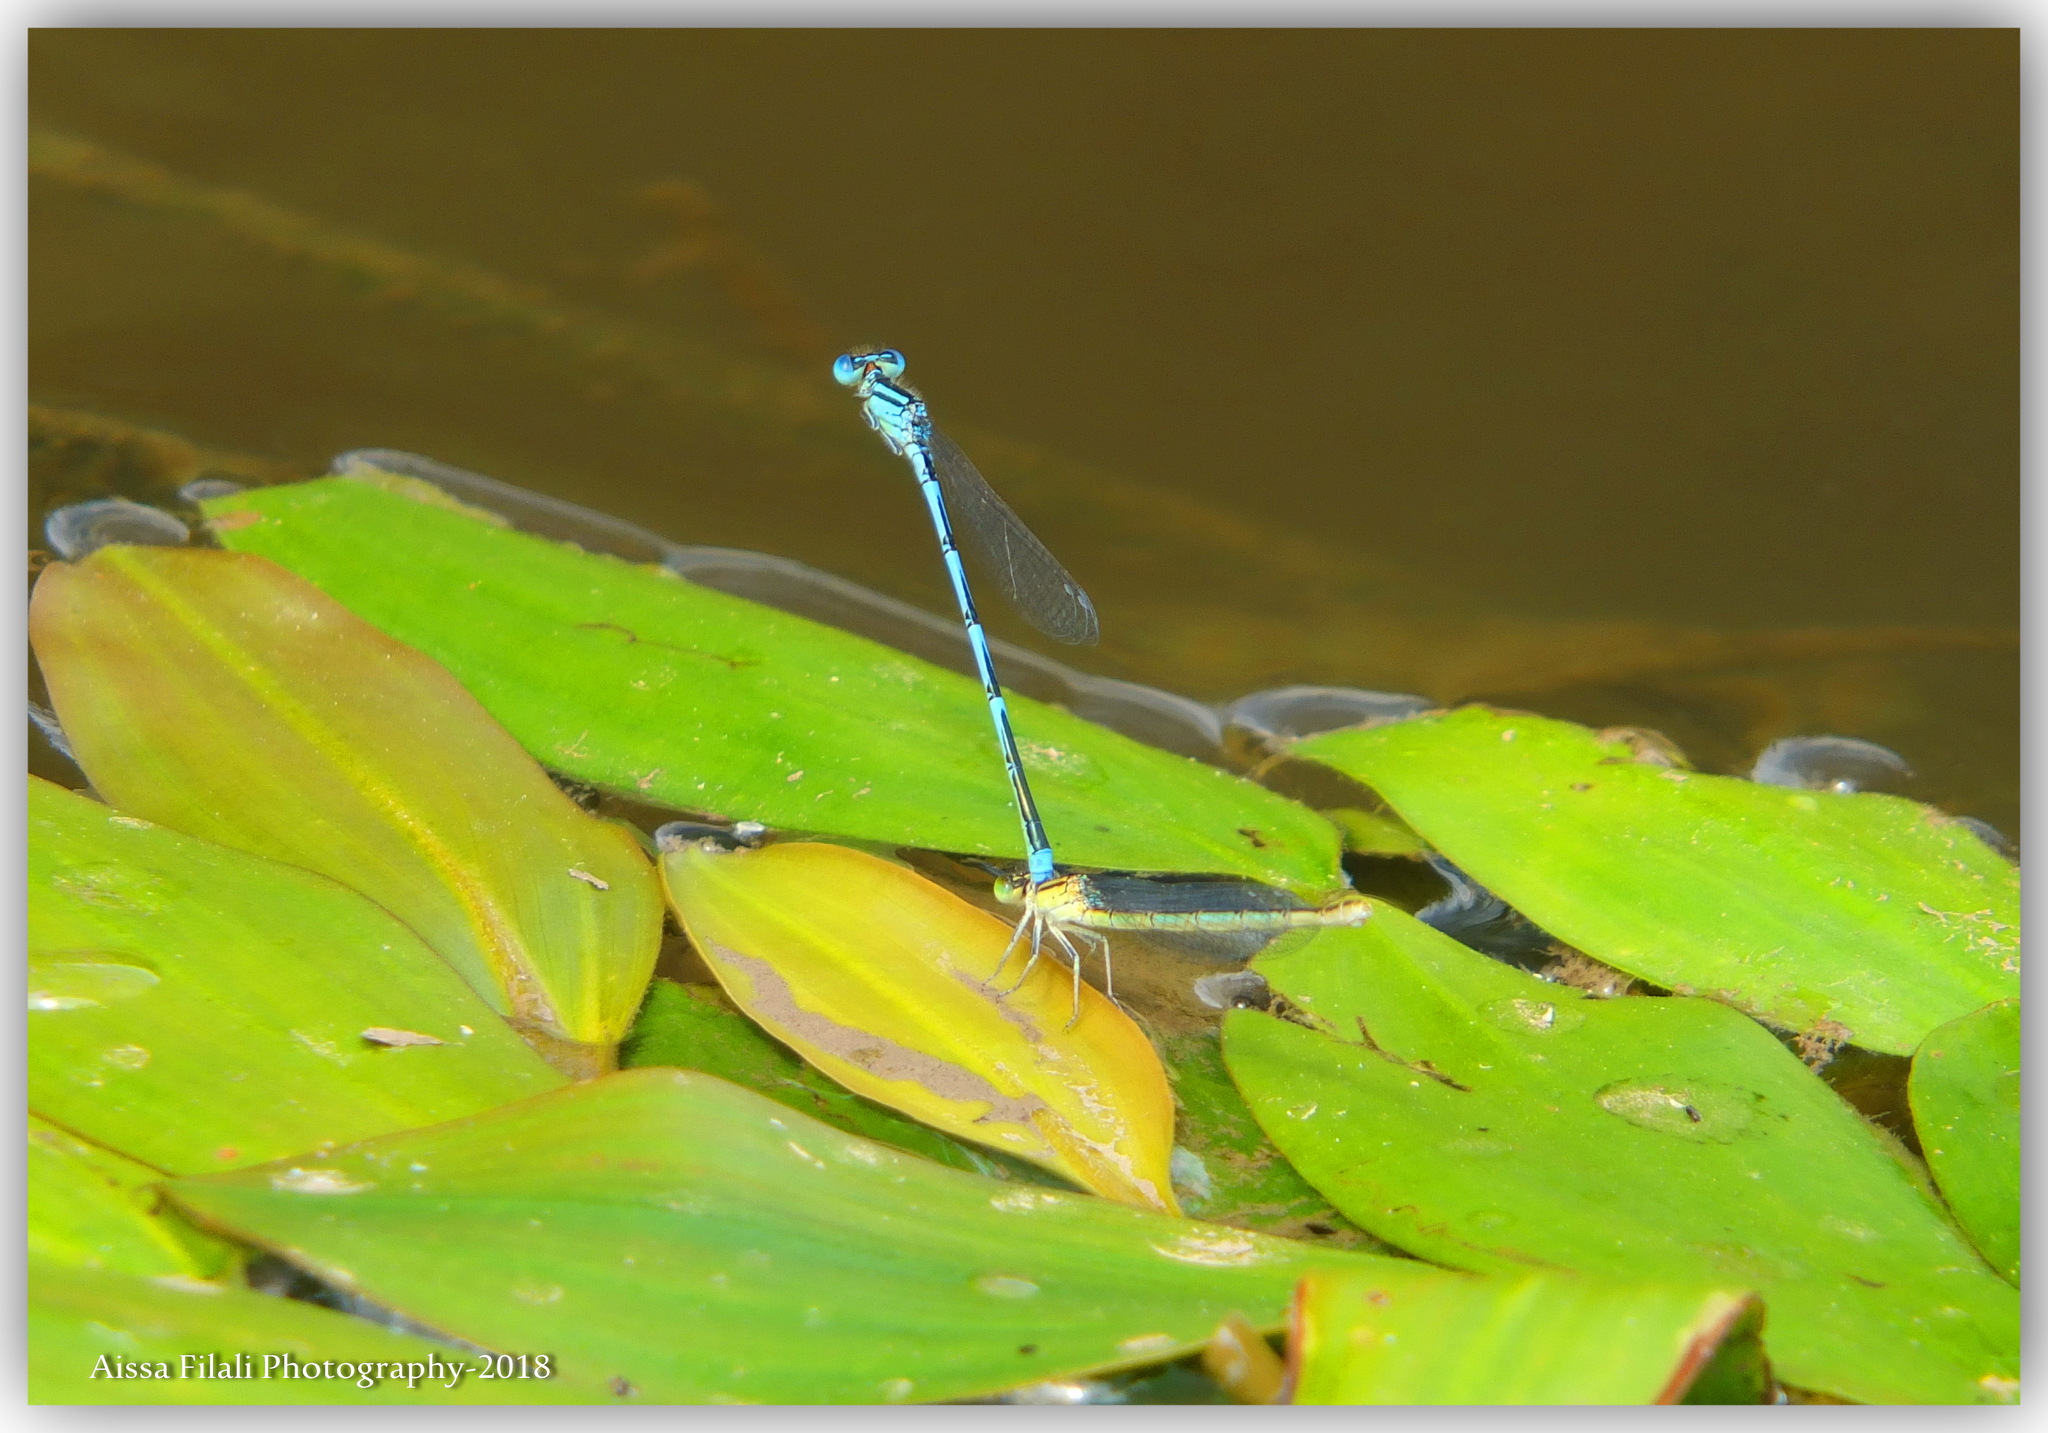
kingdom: Animalia
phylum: Arthropoda
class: Insecta
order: Odonata
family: Coenagrionidae
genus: Erythromma
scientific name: Erythromma lindenii
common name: Blue-eye
